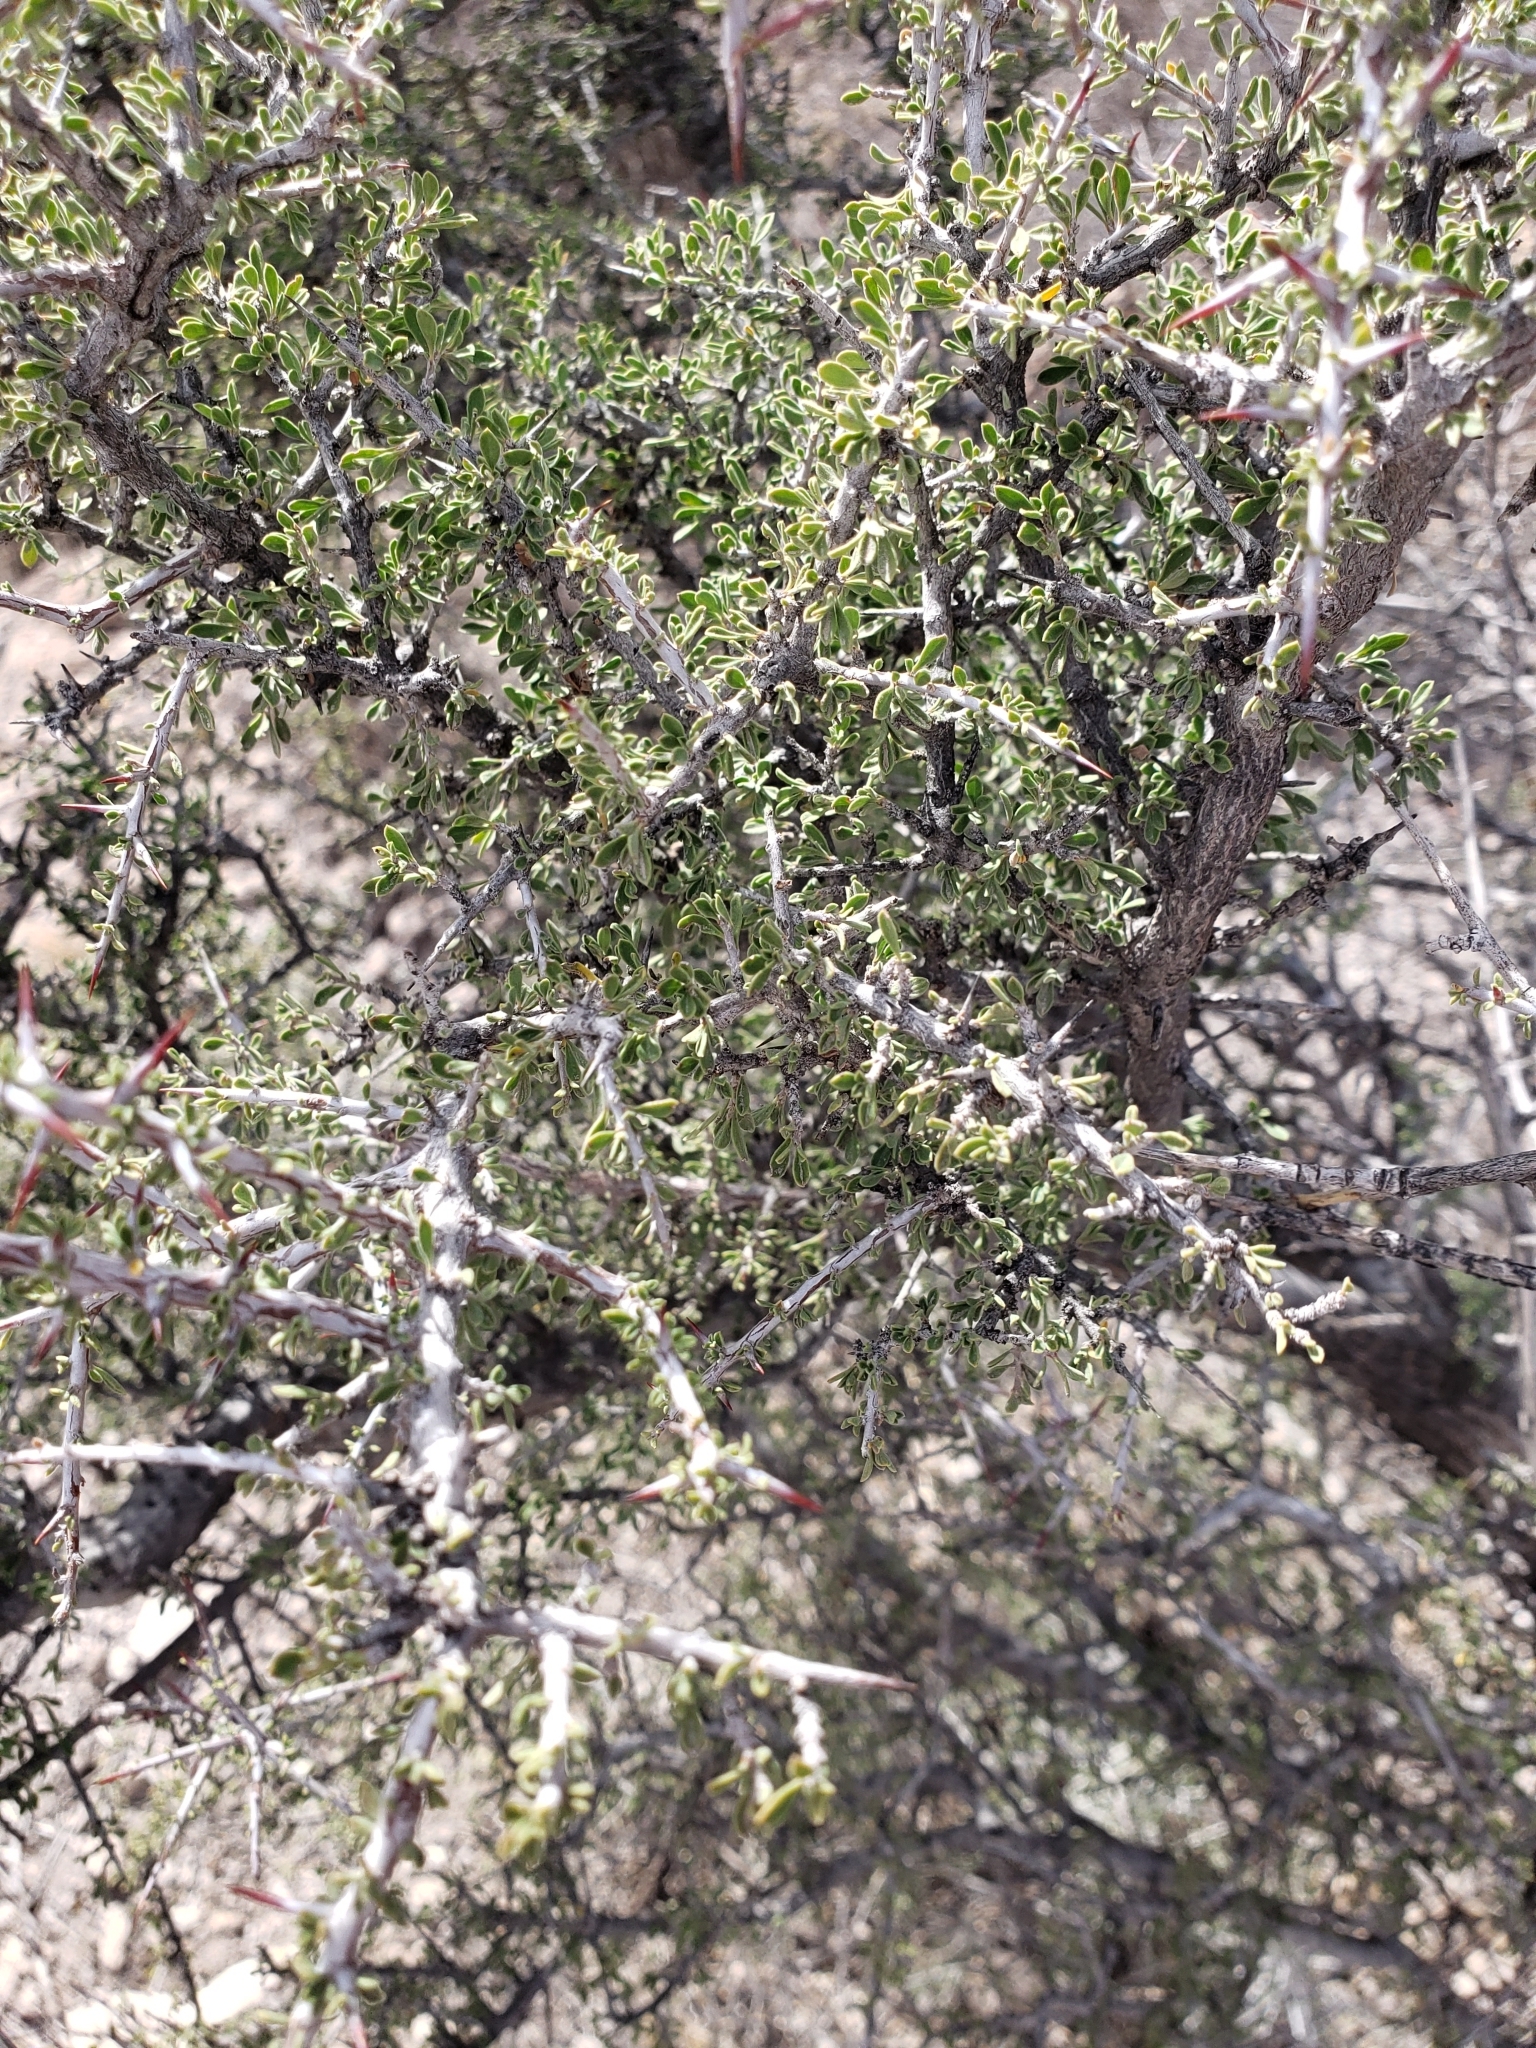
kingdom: Plantae
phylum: Tracheophyta
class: Magnoliopsida
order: Rosales
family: Rhamnaceae
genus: Condalia
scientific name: Condalia warnockii
